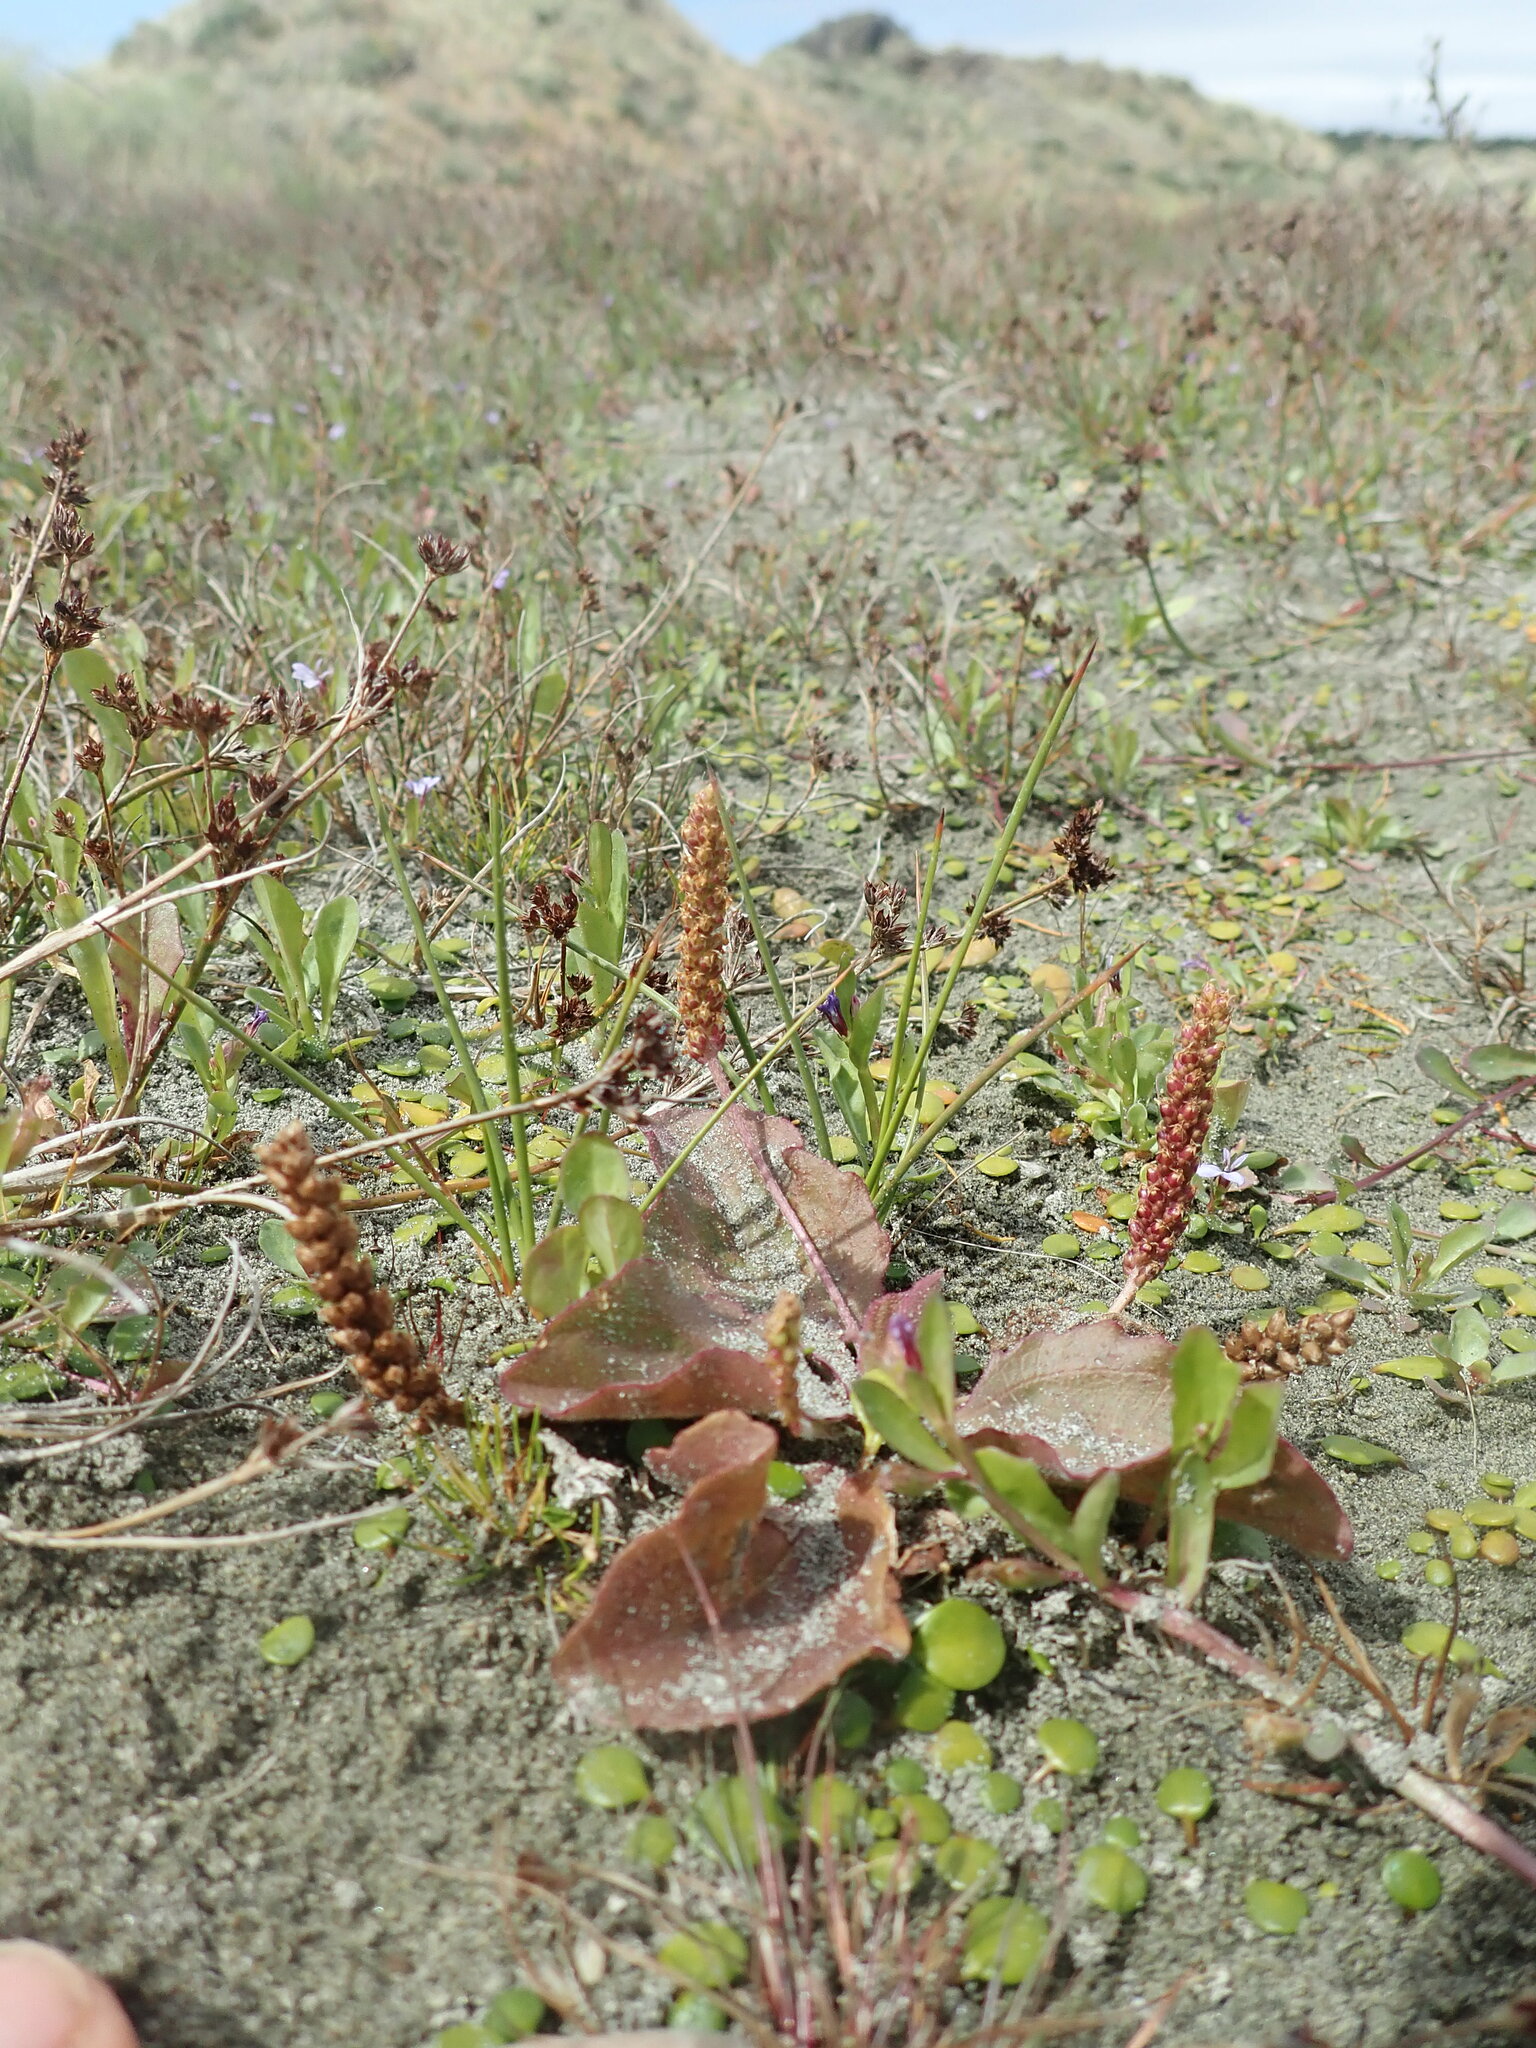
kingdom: Plantae
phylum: Tracheophyta
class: Magnoliopsida
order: Lamiales
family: Plantaginaceae
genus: Plantago
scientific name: Plantago major
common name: Common plantain
